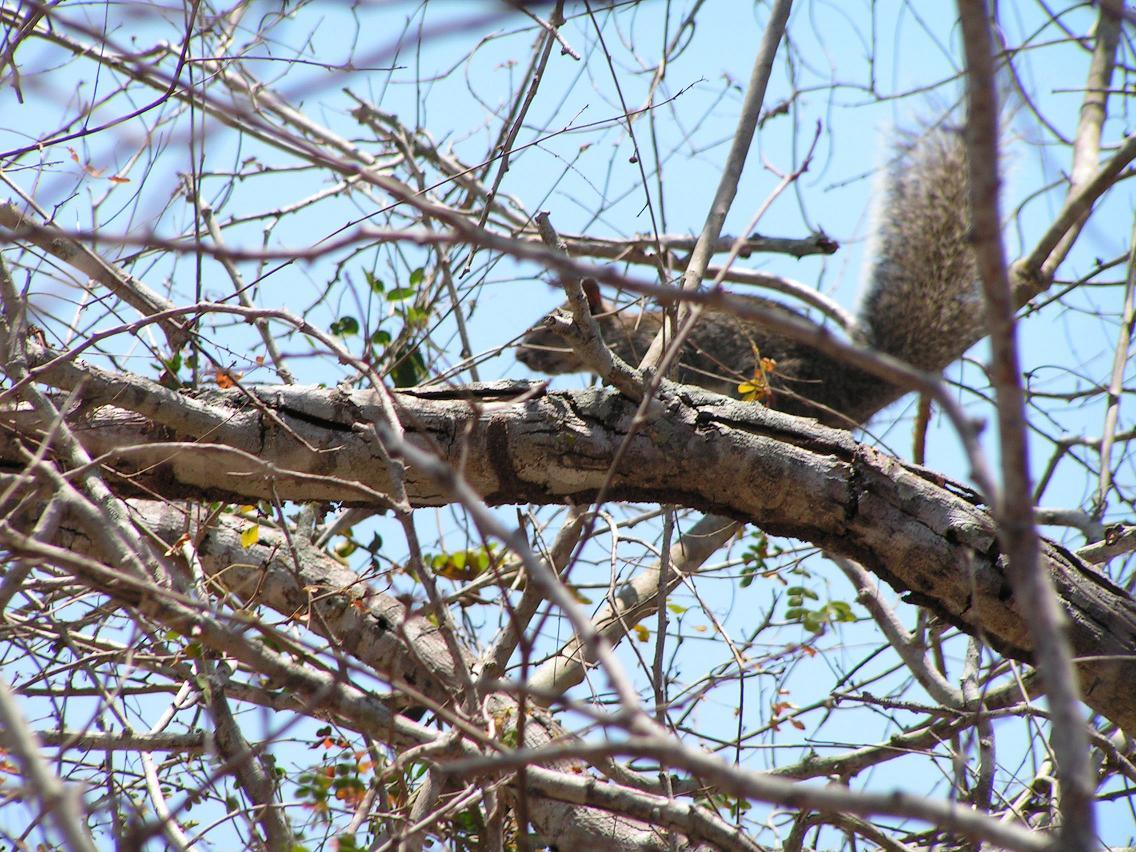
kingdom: Animalia
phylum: Chordata
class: Mammalia
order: Rodentia
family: Sciuridae
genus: Sciurus
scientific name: Sciurus colliaei
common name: Collie's squirrel
